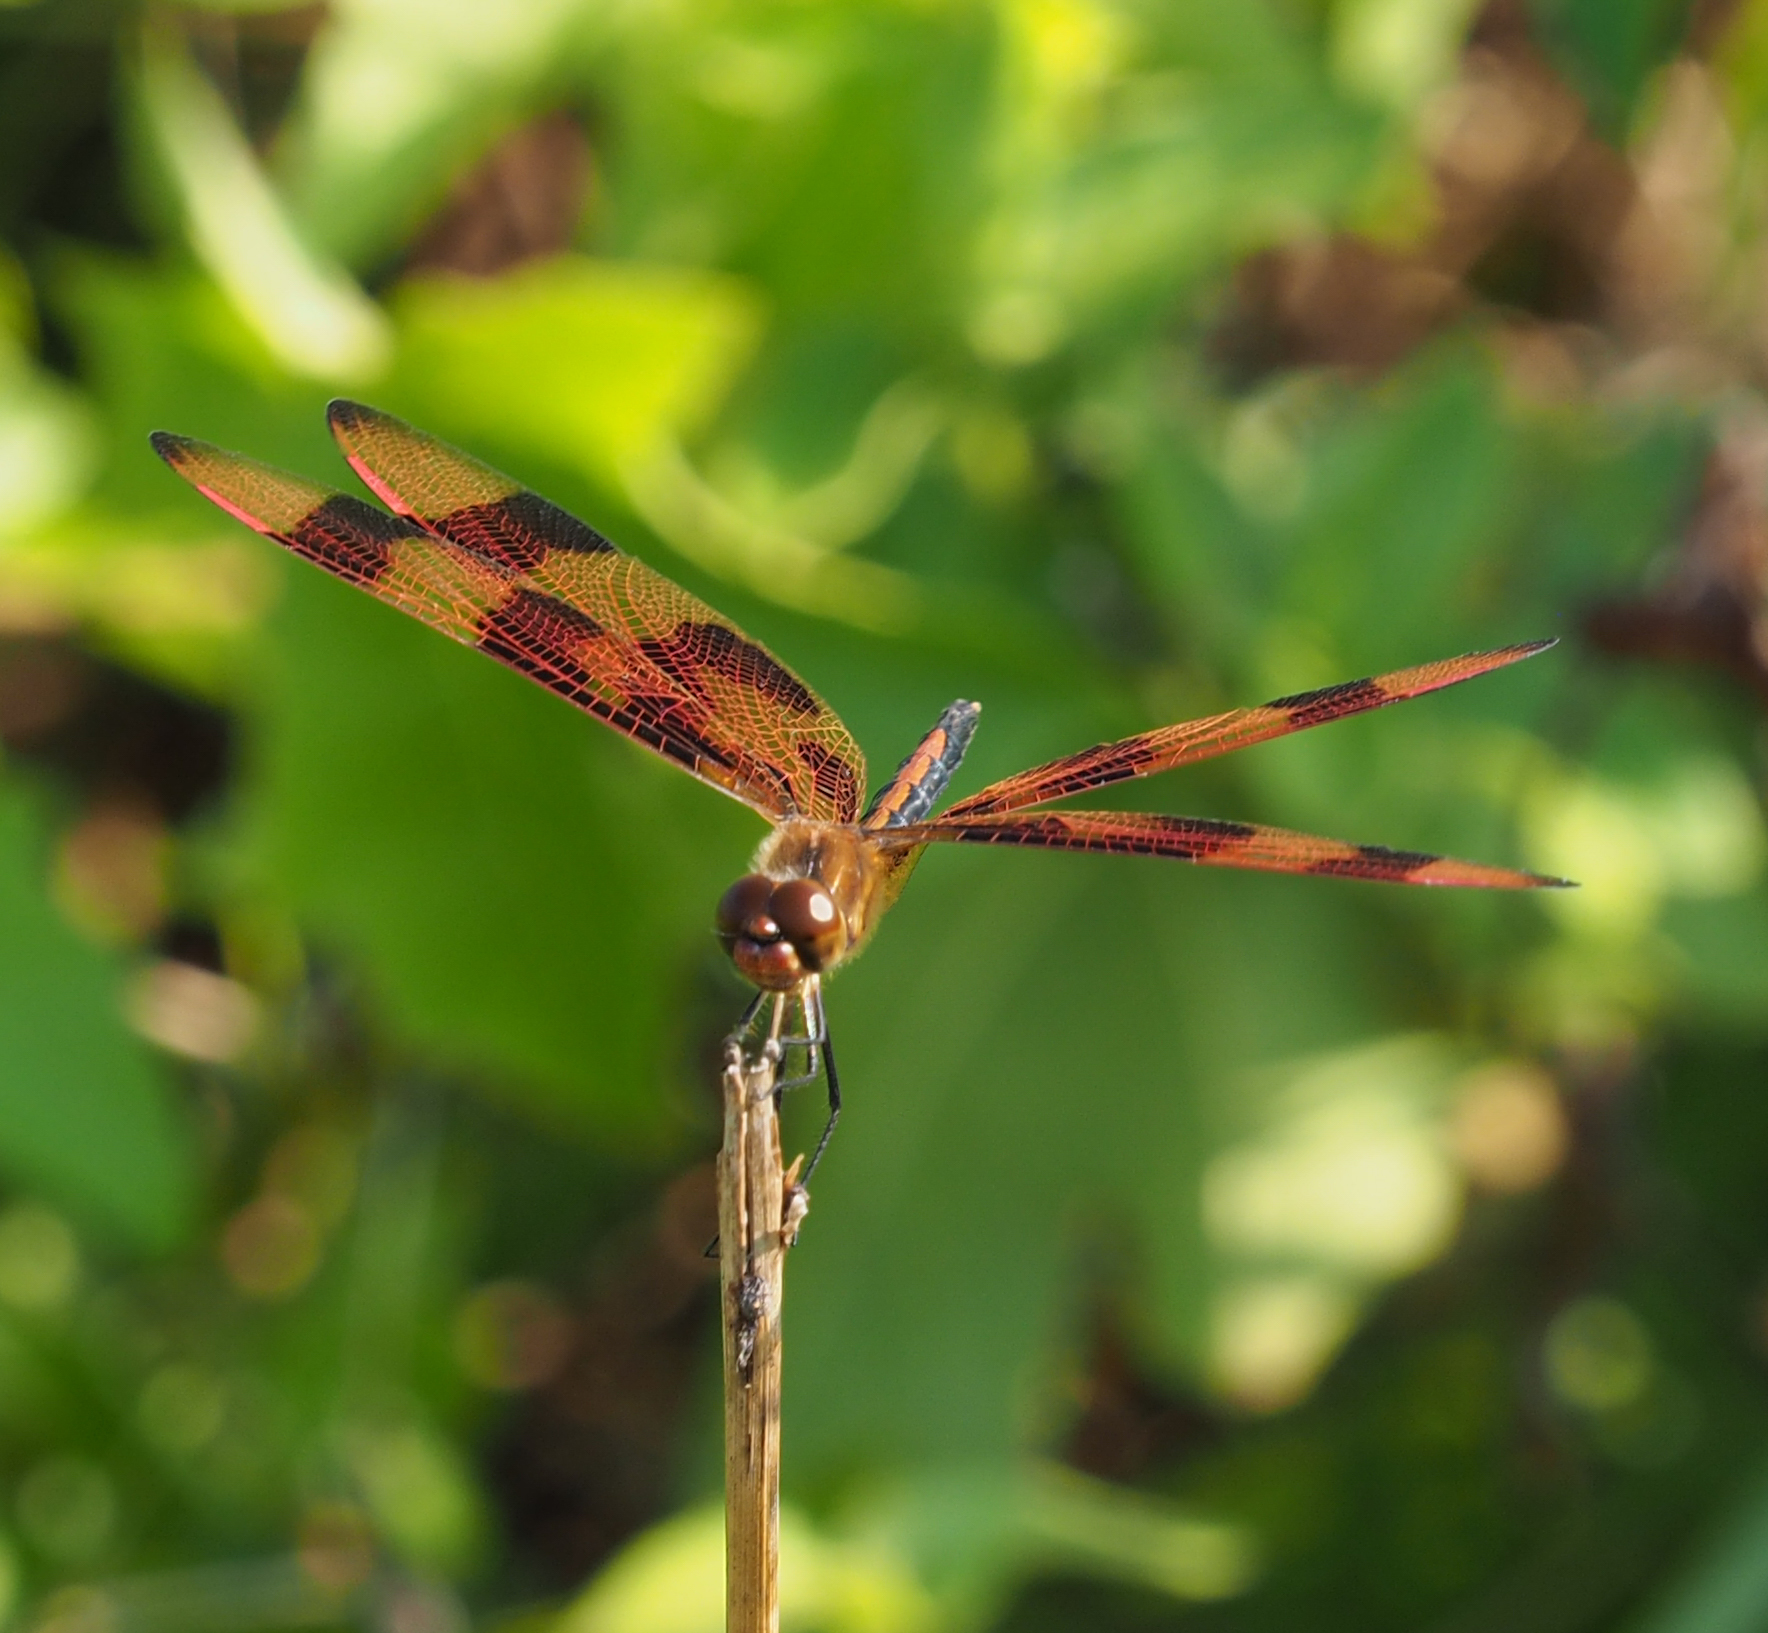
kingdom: Animalia
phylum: Arthropoda
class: Insecta
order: Odonata
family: Libellulidae
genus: Celithemis
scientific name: Celithemis eponina
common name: Halloween pennant
